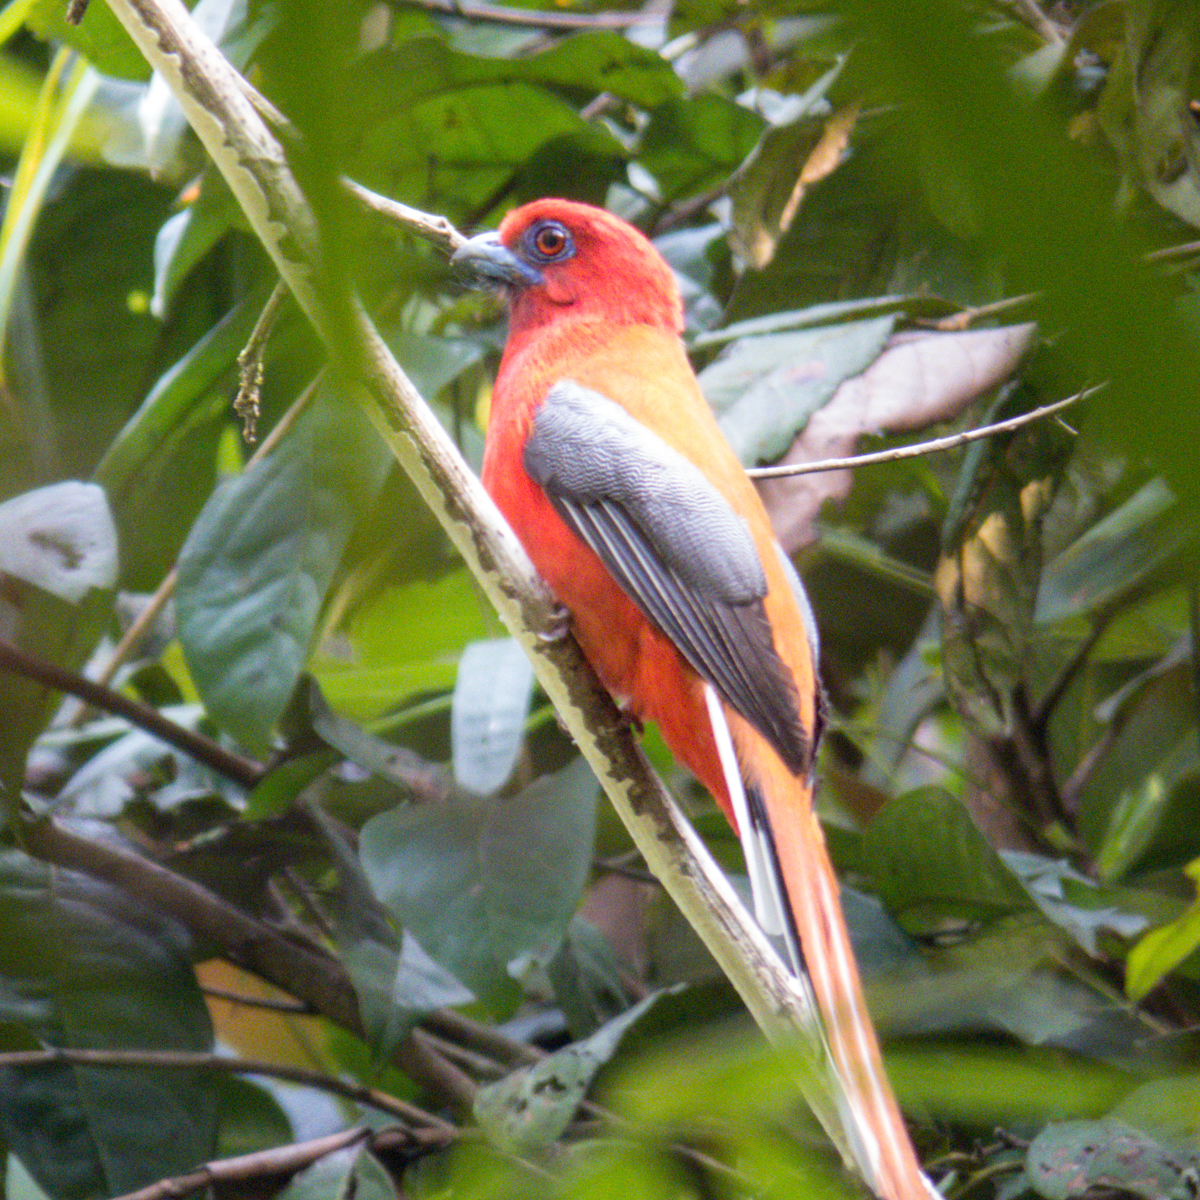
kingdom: Animalia
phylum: Chordata
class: Aves
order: Trogoniformes
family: Trogonidae
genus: Harpactes
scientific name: Harpactes erythrocephalus
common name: Red-headed trogon
